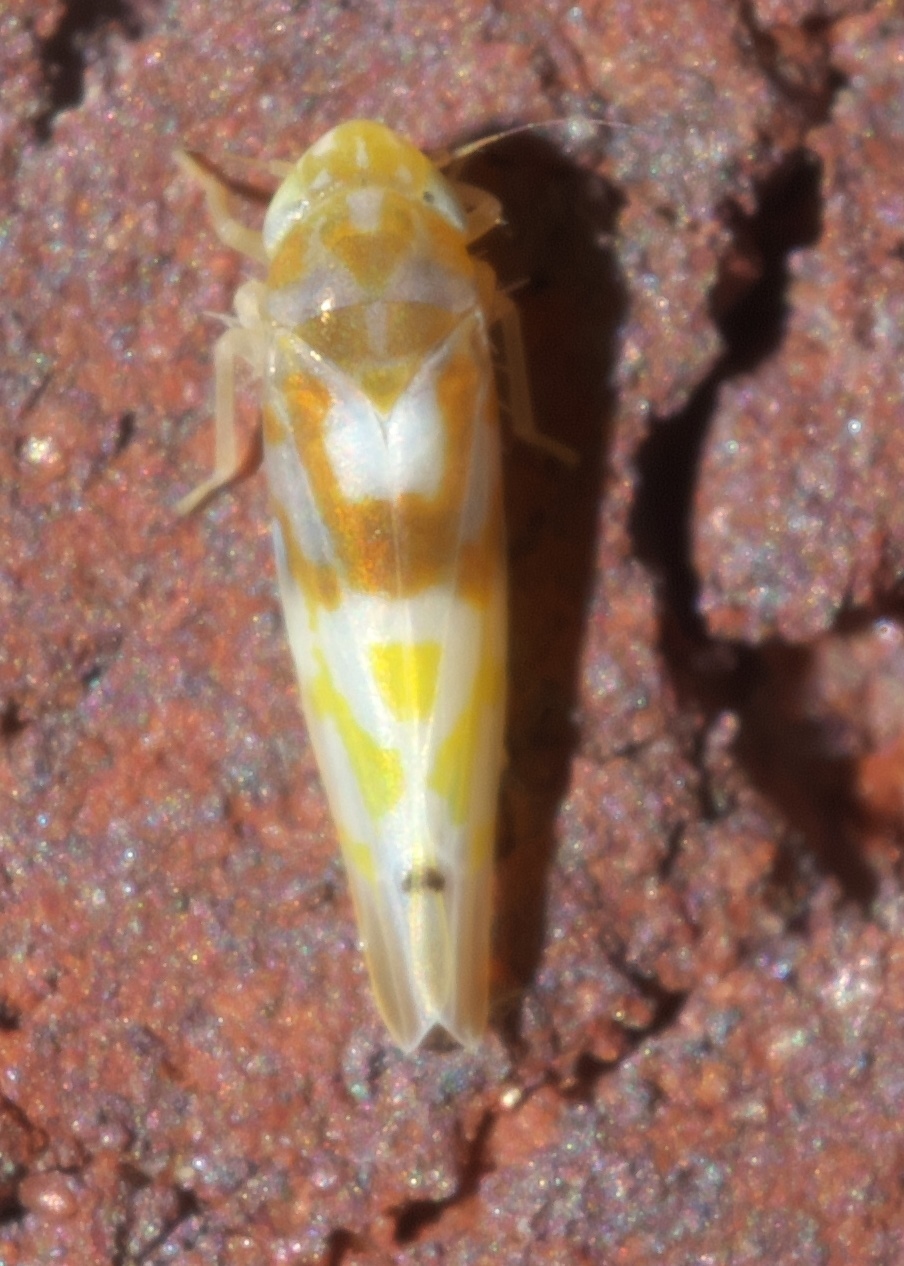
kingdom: Animalia
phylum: Arthropoda
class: Insecta
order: Hemiptera
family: Cicadellidae
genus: Eratoneura
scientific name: Eratoneura affinis
